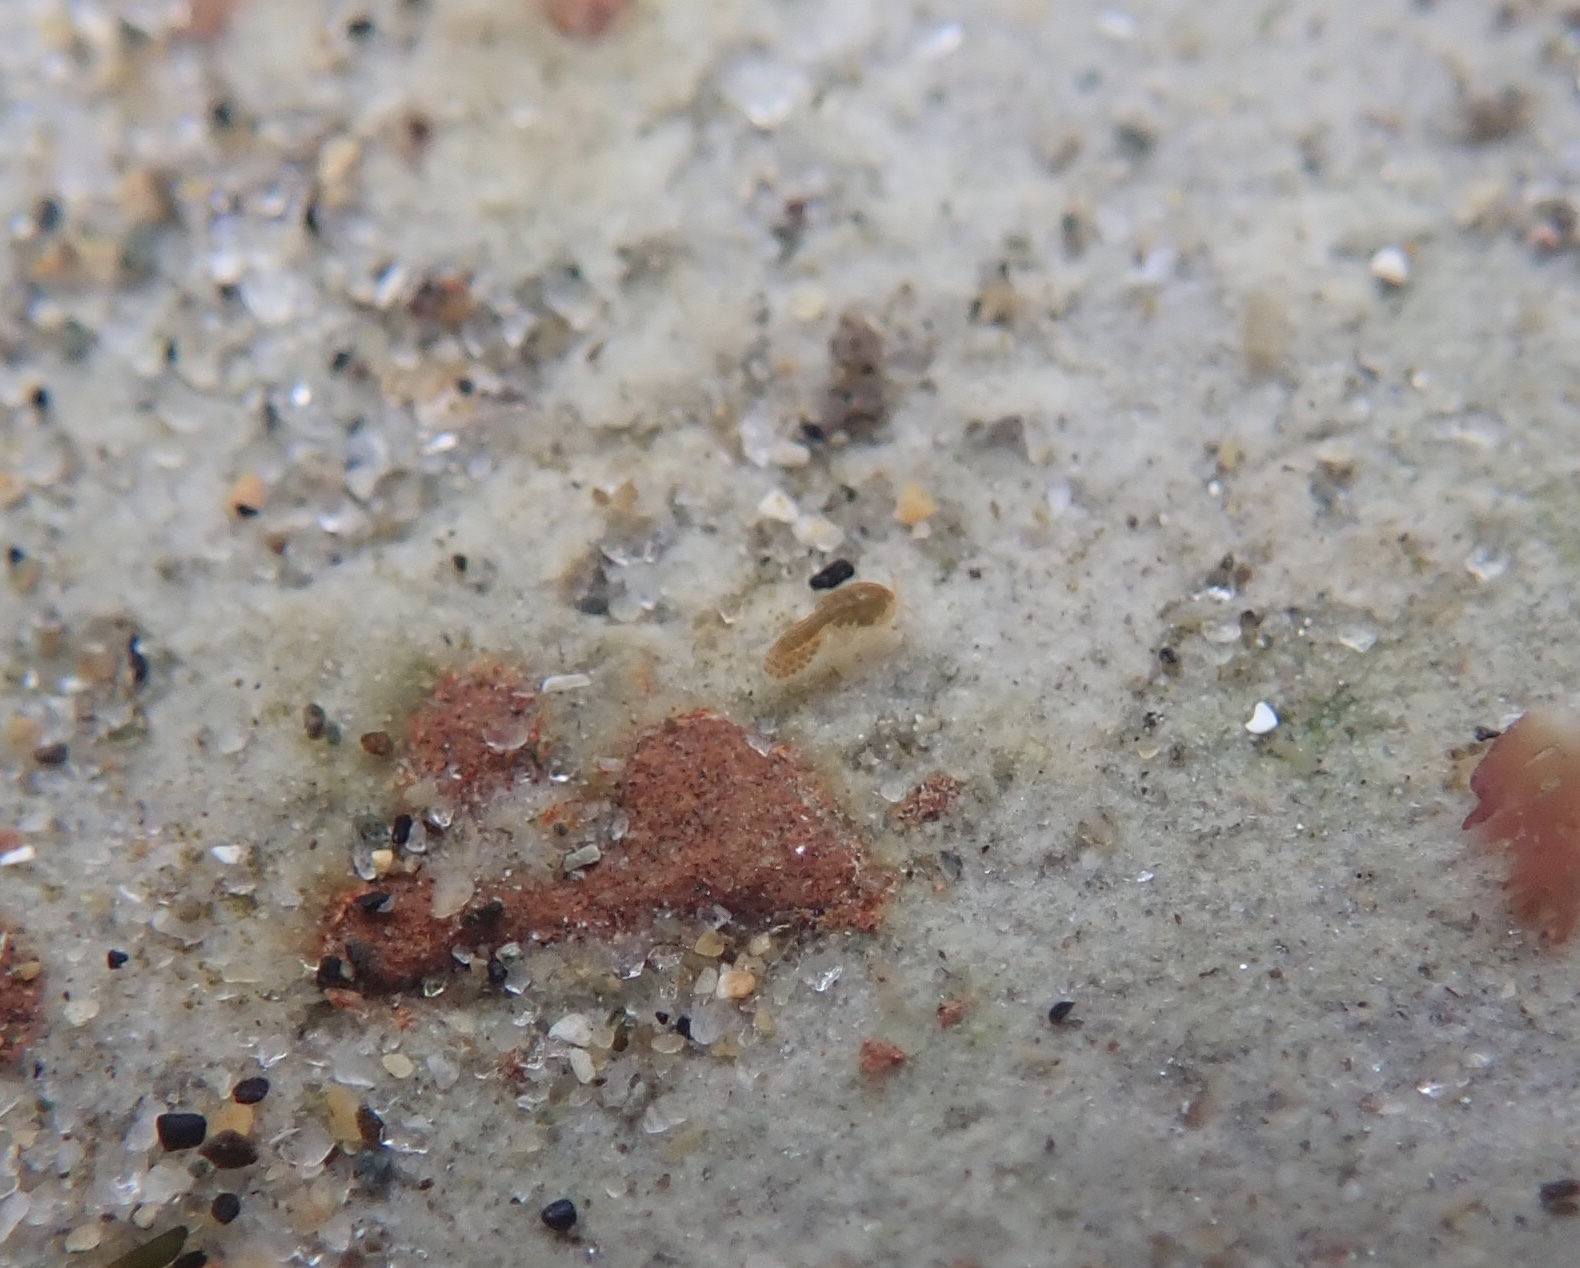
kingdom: Animalia
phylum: Arthropoda
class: Copepoda
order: Harpacticoida
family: Harpacticidae
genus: Tigriopus
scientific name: Tigriopus californicus
